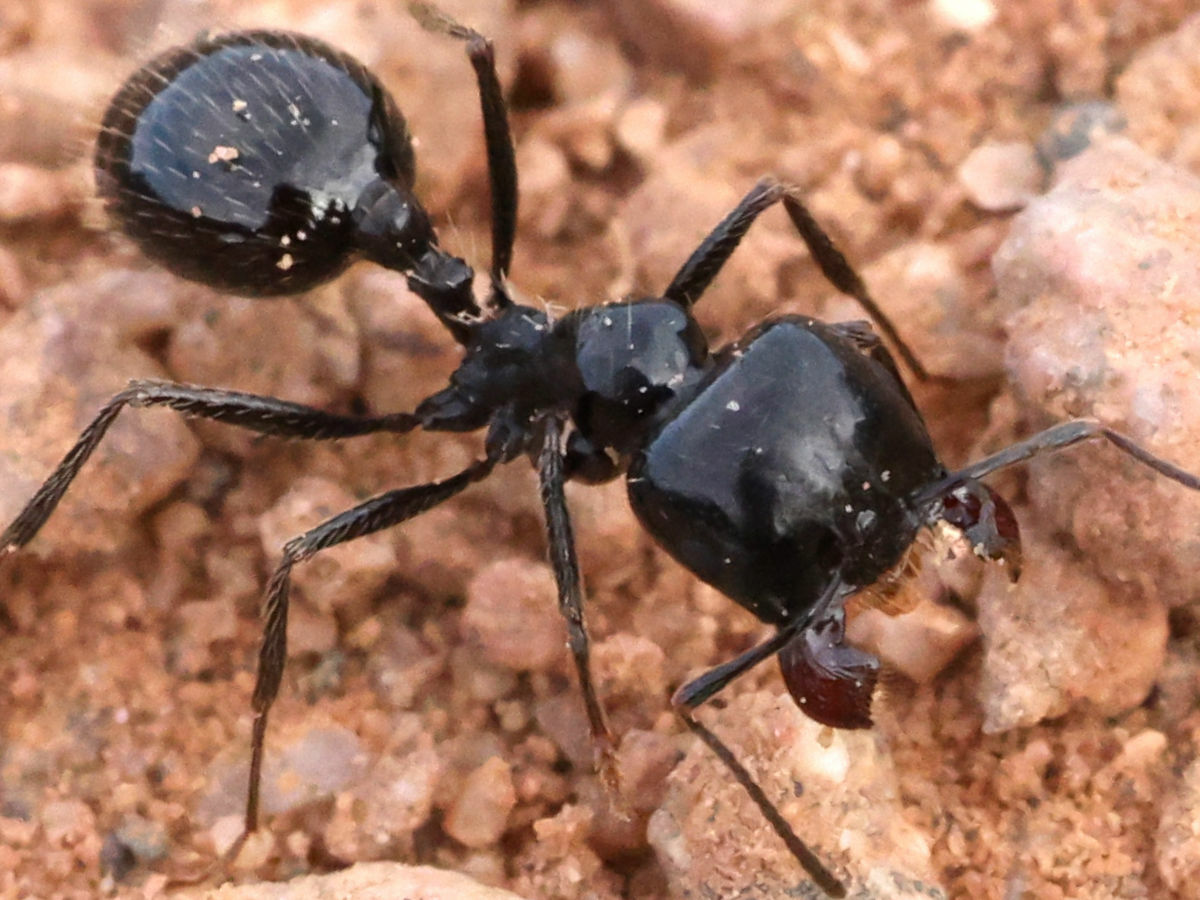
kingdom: Animalia
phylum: Arthropoda
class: Insecta
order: Hymenoptera
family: Formicidae
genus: Messor
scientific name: Messor pergandei
